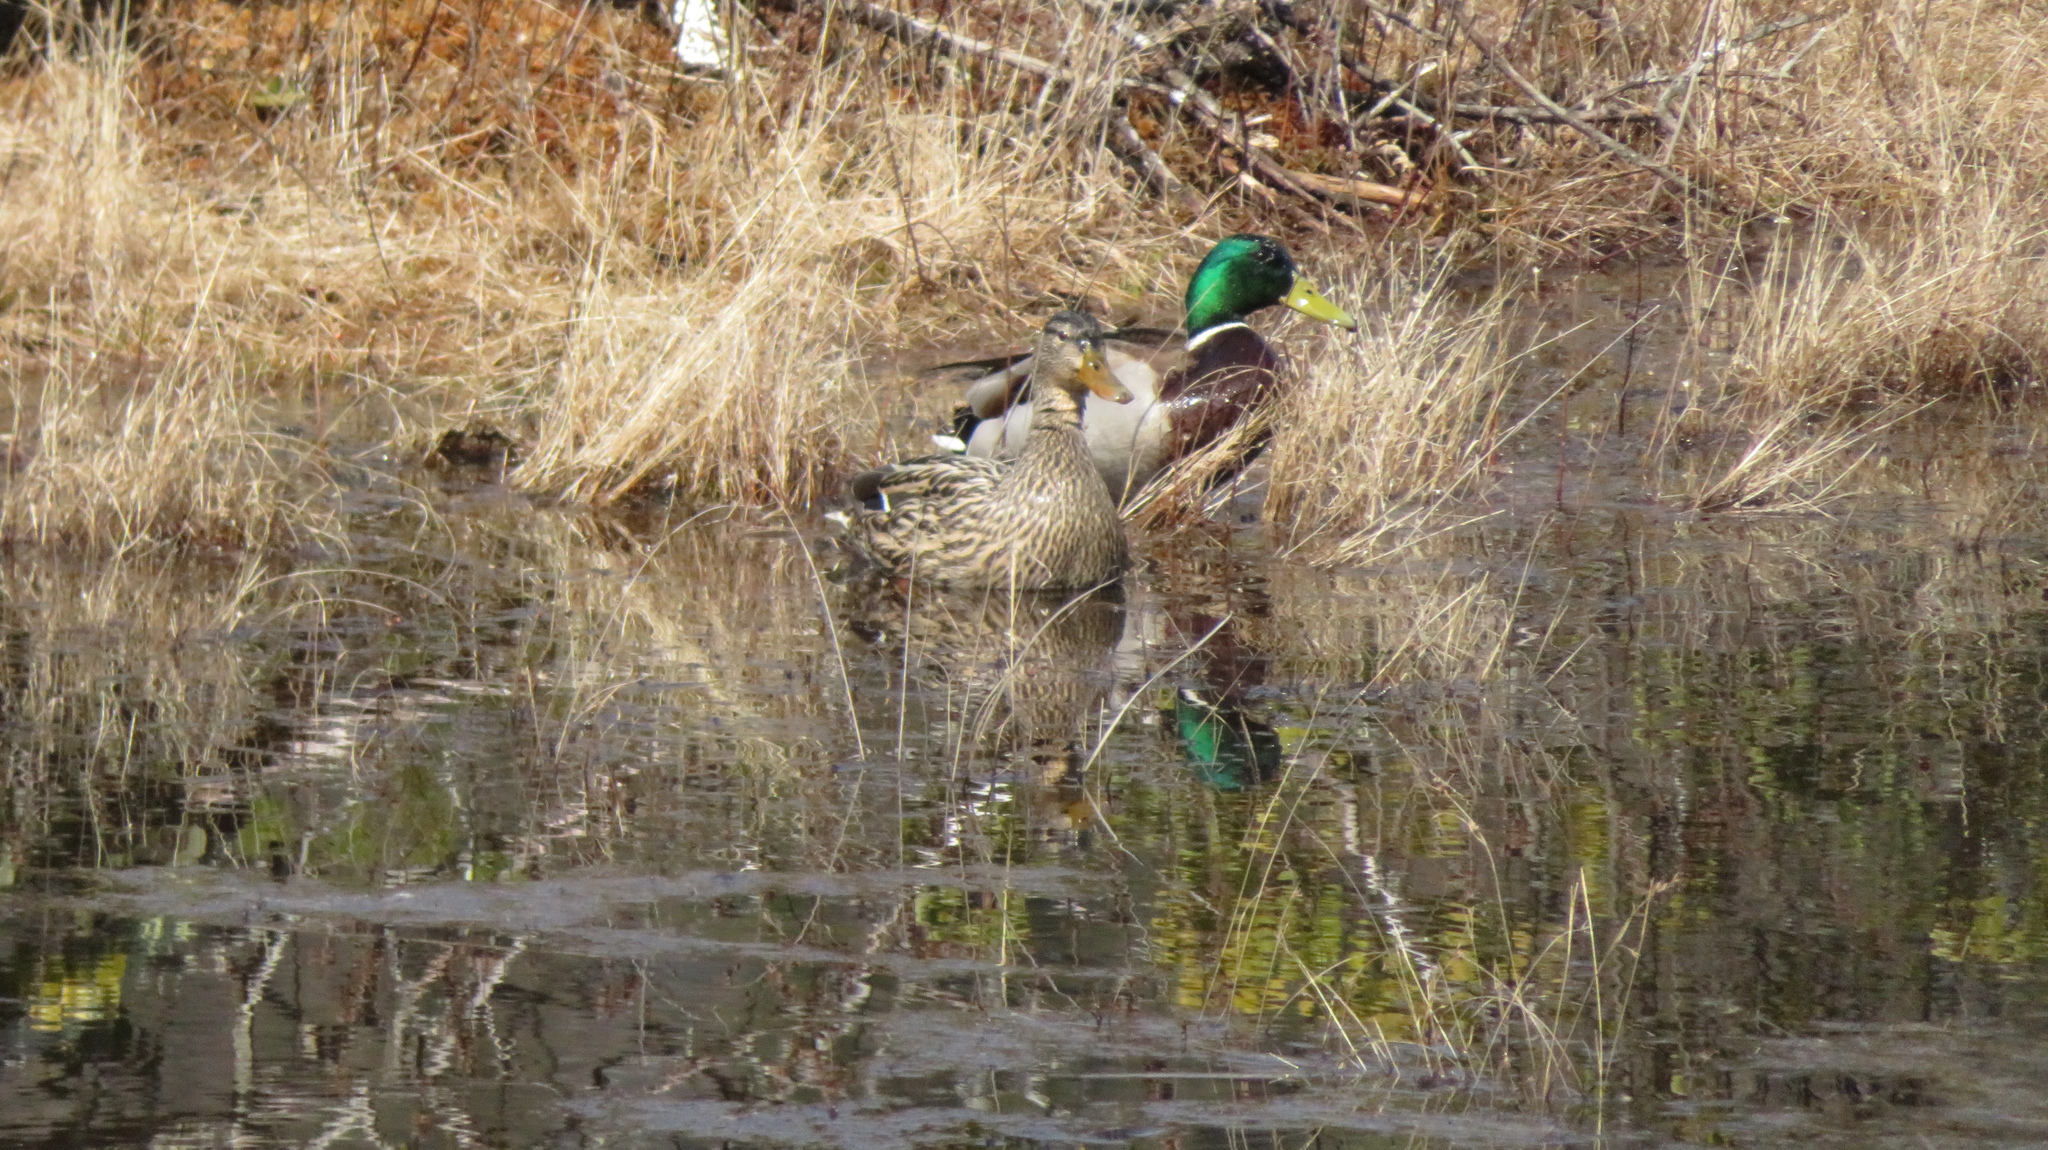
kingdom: Animalia
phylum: Chordata
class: Aves
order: Anseriformes
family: Anatidae
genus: Anas
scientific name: Anas platyrhynchos
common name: Mallard
